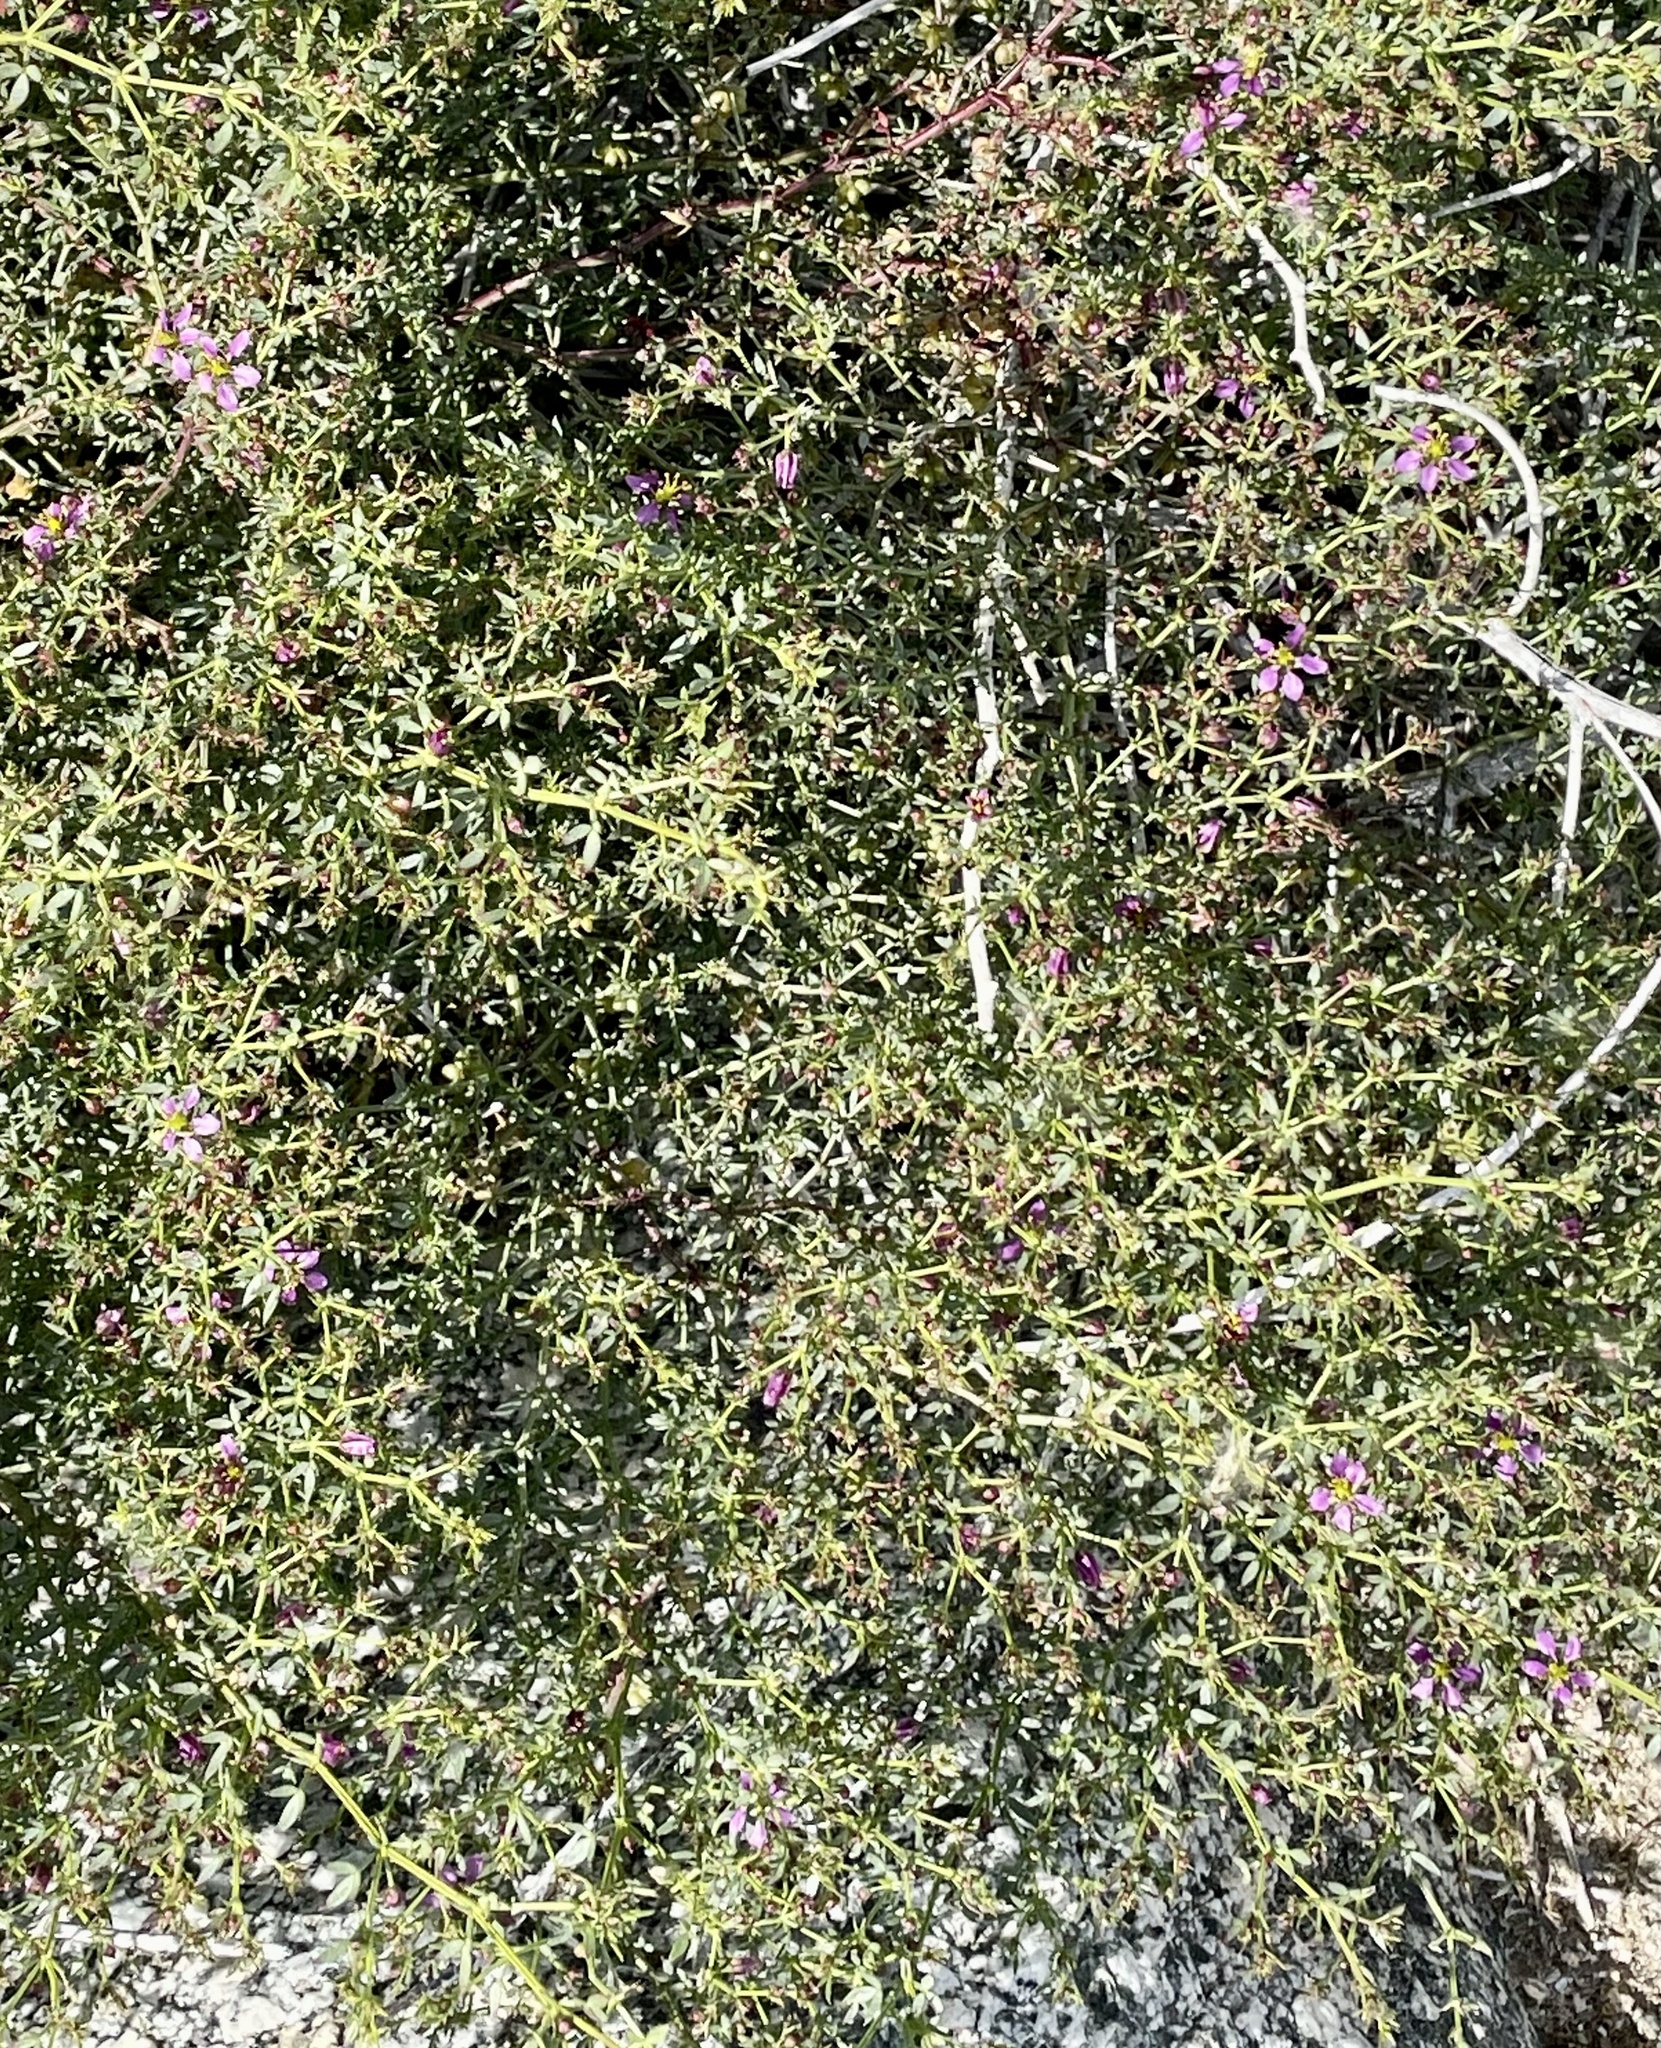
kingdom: Plantae
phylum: Tracheophyta
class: Magnoliopsida
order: Zygophyllales
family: Zygophyllaceae
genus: Fagonia
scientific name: Fagonia laevis
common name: California fagonbush
